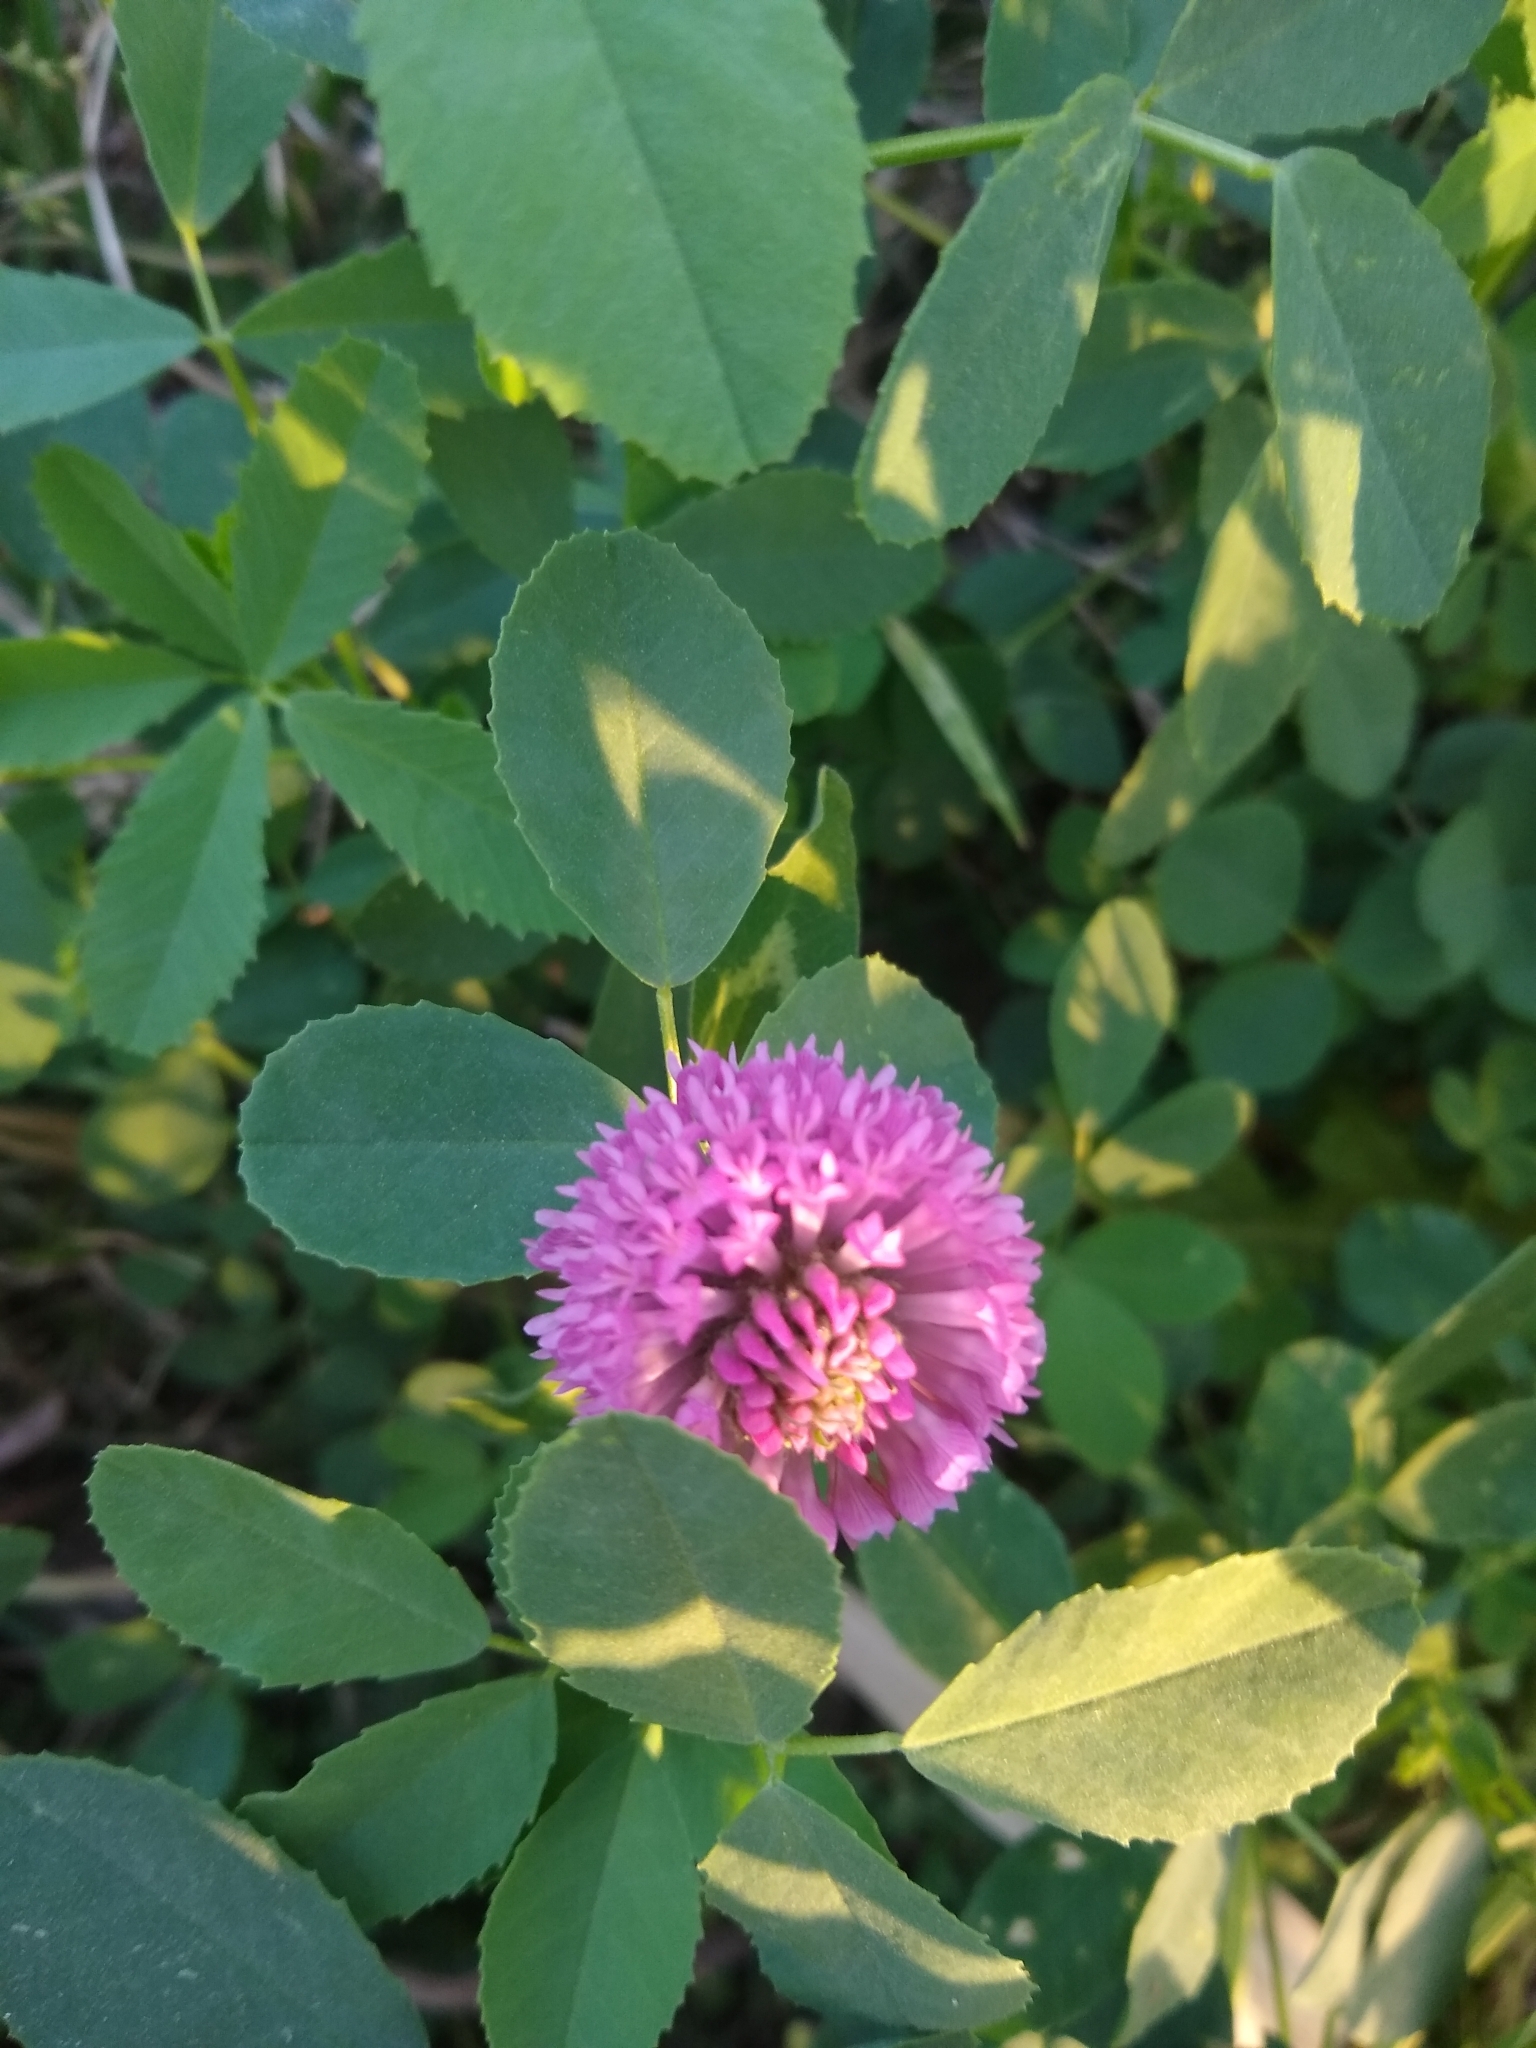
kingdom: Plantae
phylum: Tracheophyta
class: Magnoliopsida
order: Fabales
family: Fabaceae
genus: Trifolium
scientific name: Trifolium pratense
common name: Red clover
